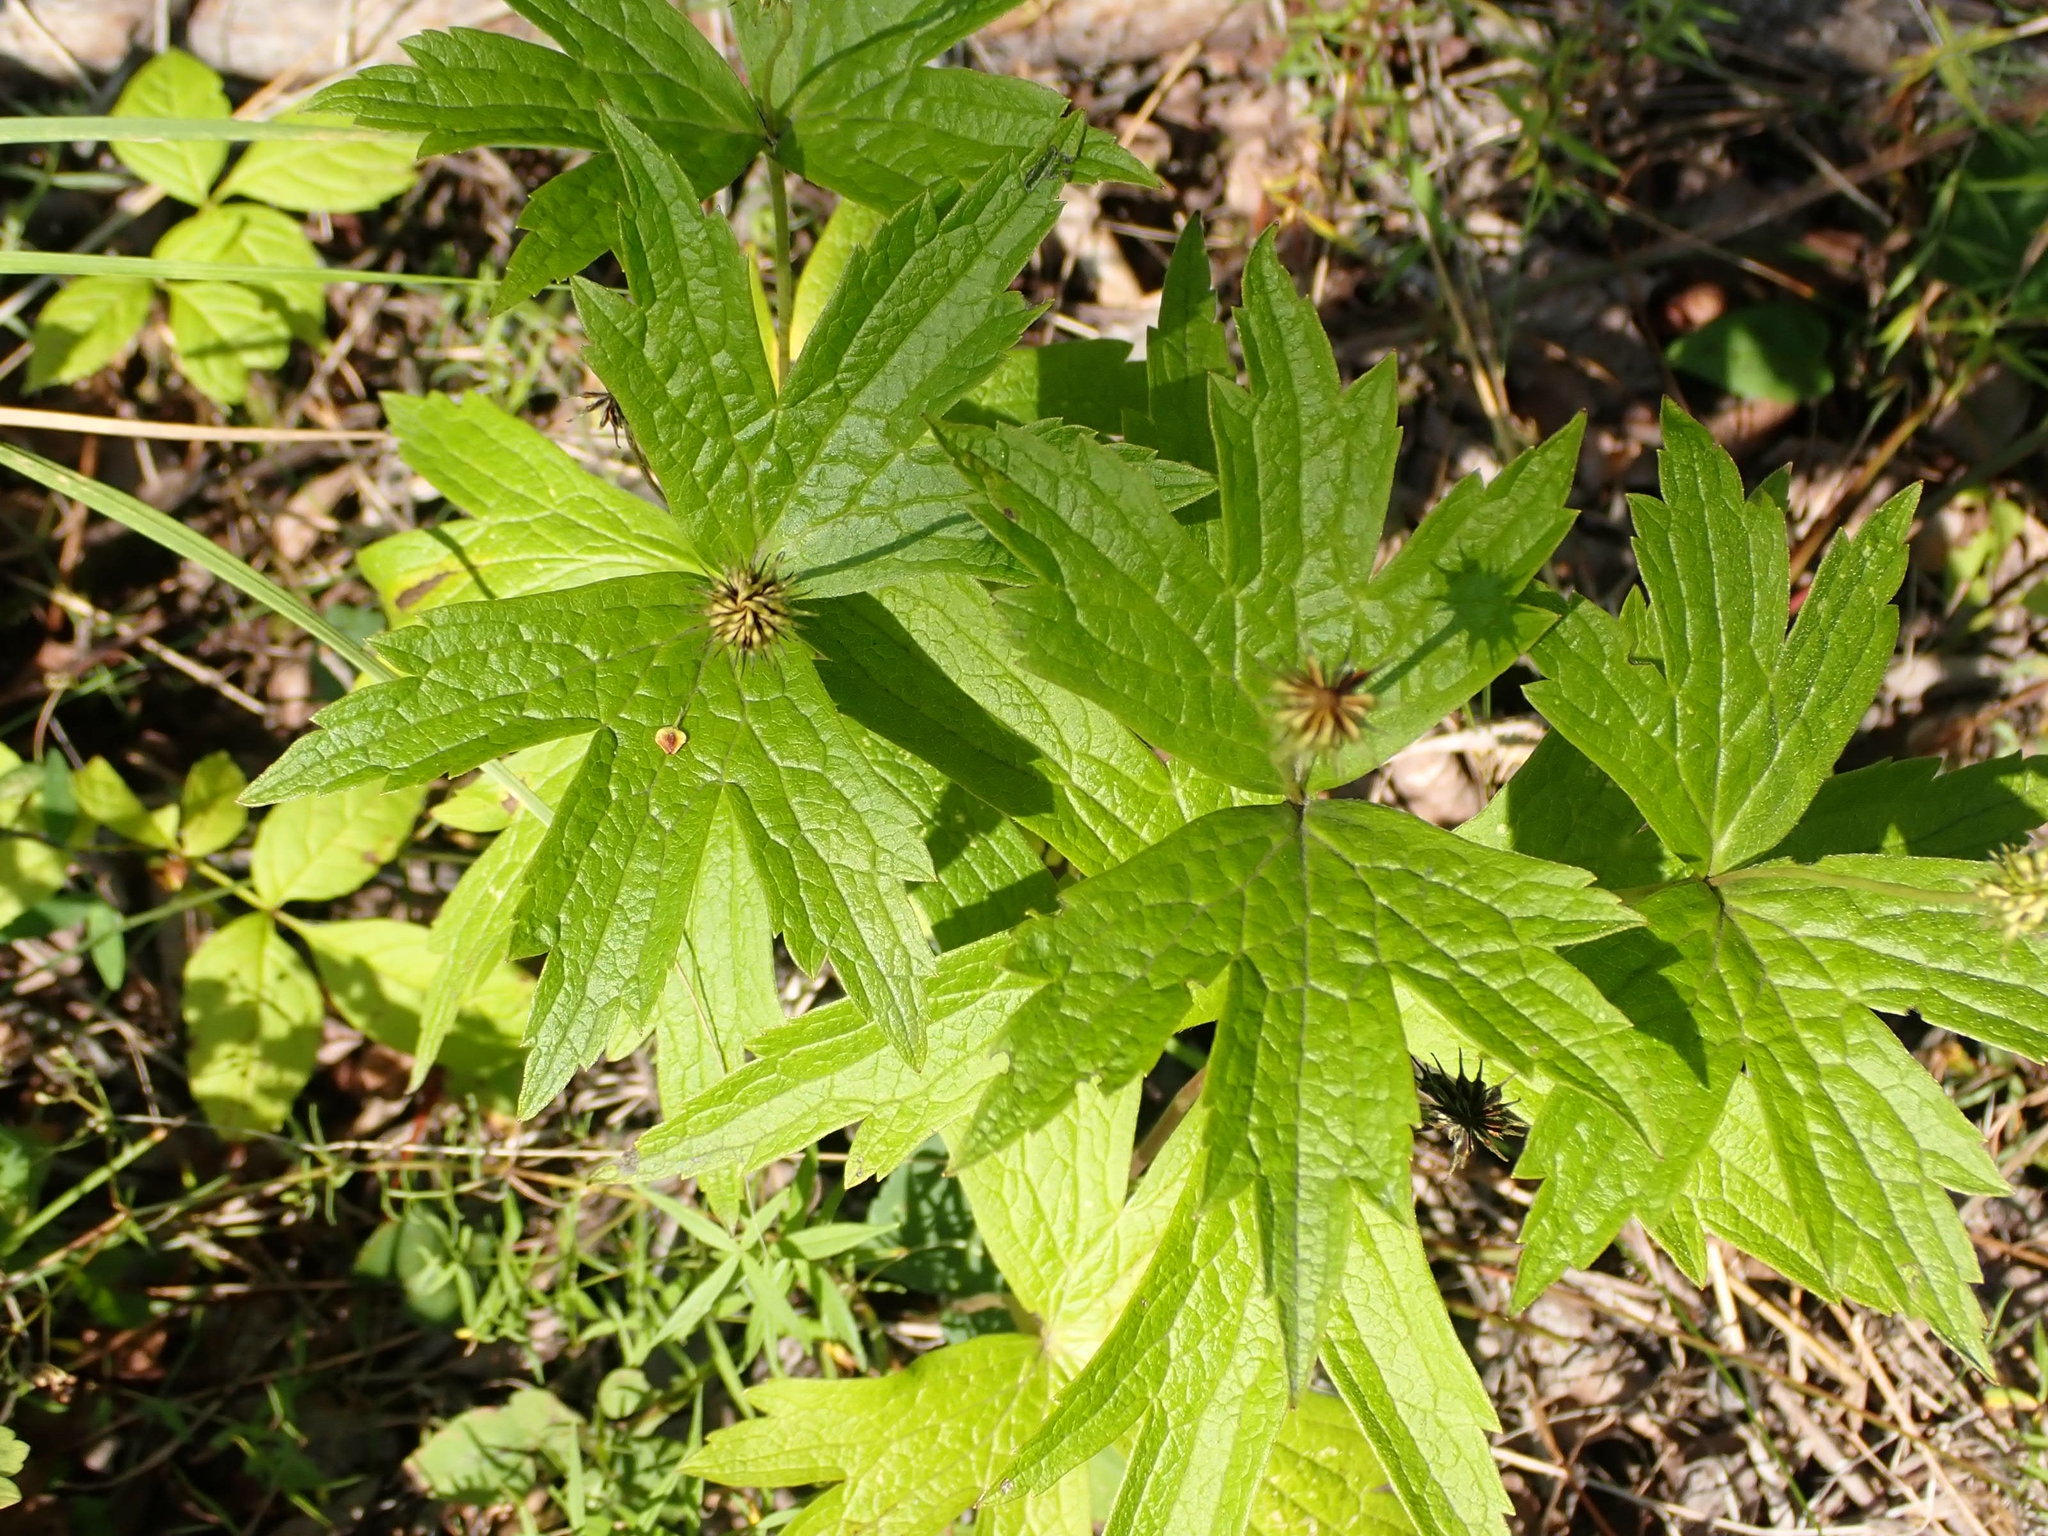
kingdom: Plantae
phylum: Tracheophyta
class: Magnoliopsida
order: Ranunculales
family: Ranunculaceae
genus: Anemonastrum
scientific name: Anemonastrum canadense
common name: Canada anemone
